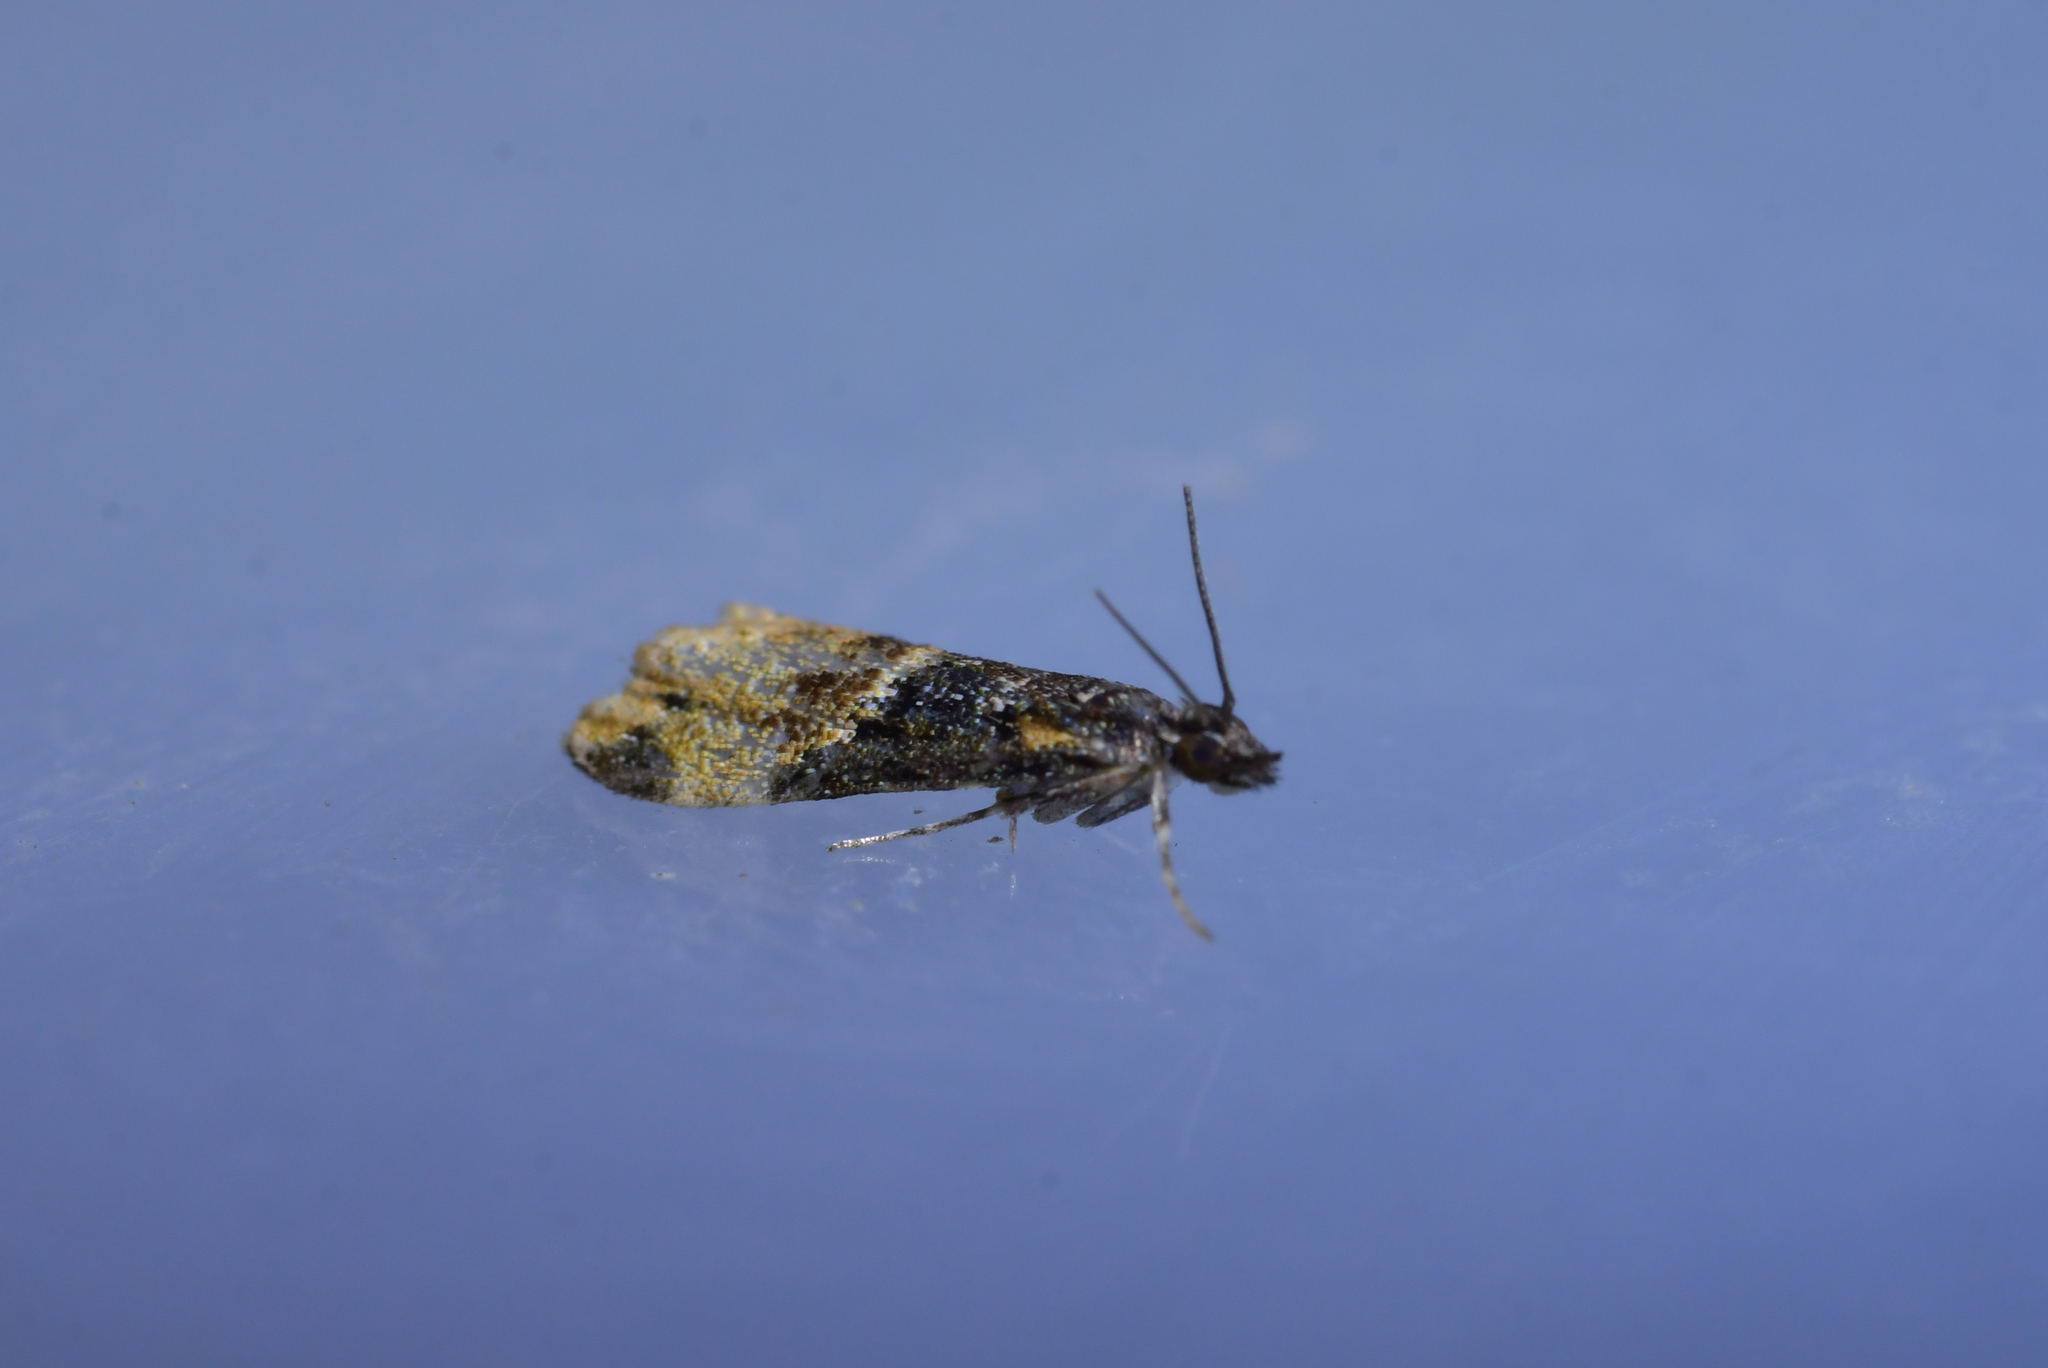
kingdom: Animalia
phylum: Arthropoda
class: Insecta
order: Lepidoptera
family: Crambidae
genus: Eudonia
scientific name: Eudonia chlamydota
